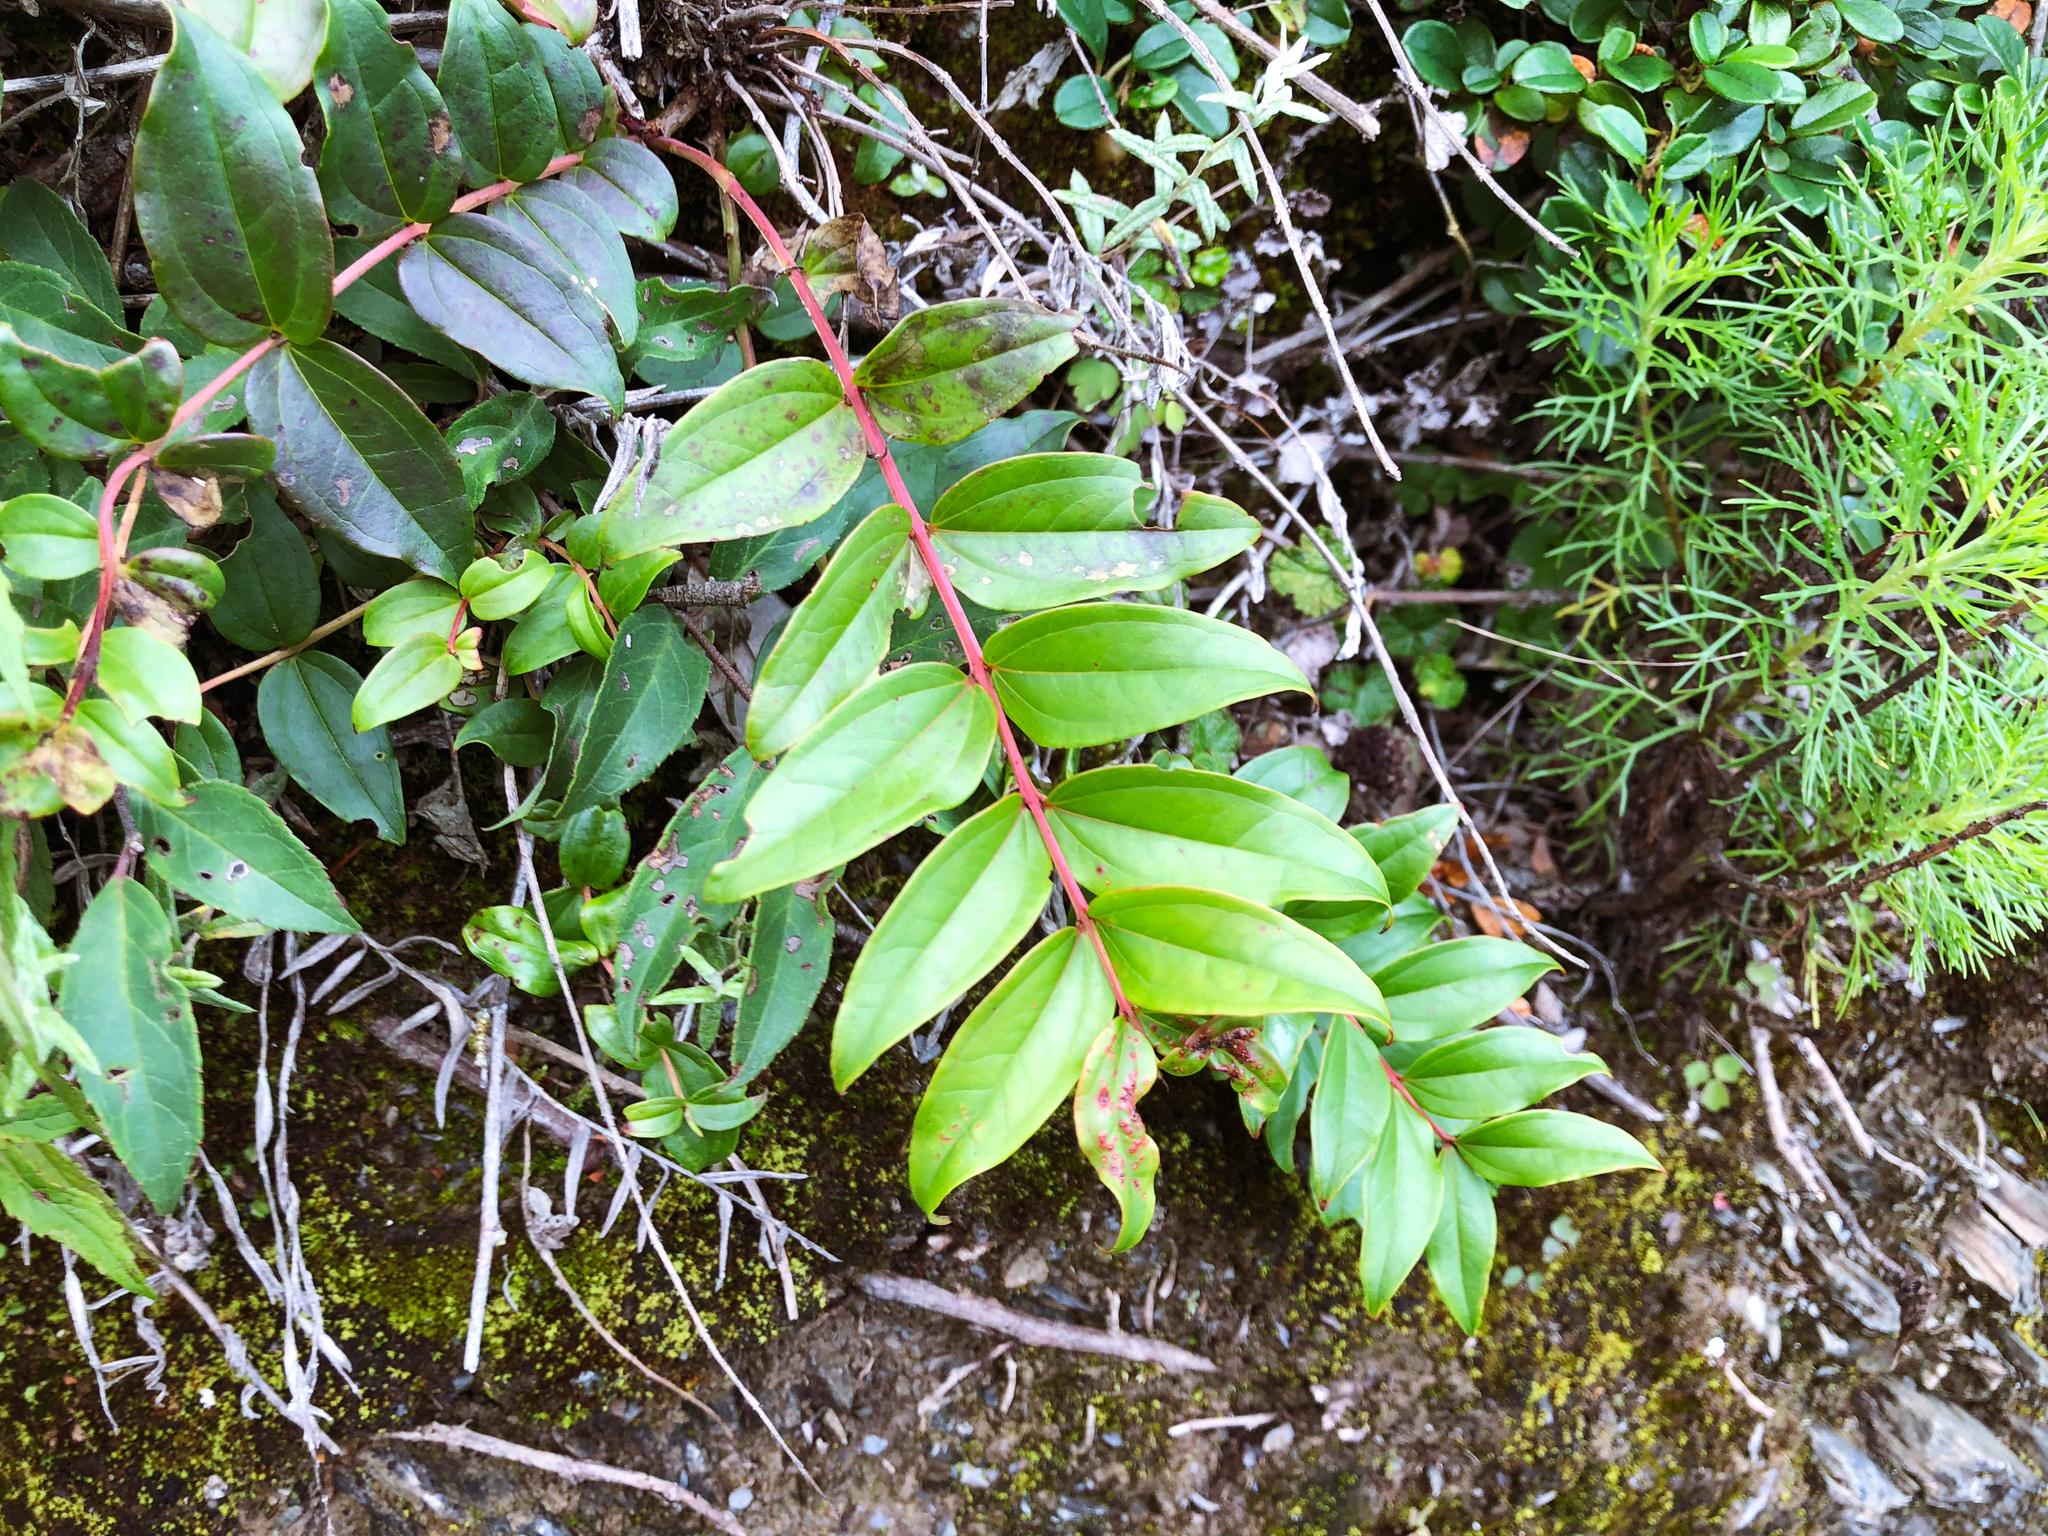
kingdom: Plantae
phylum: Tracheophyta
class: Magnoliopsida
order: Cucurbitales
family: Coriariaceae
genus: Coriaria
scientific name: Coriaria japonica
